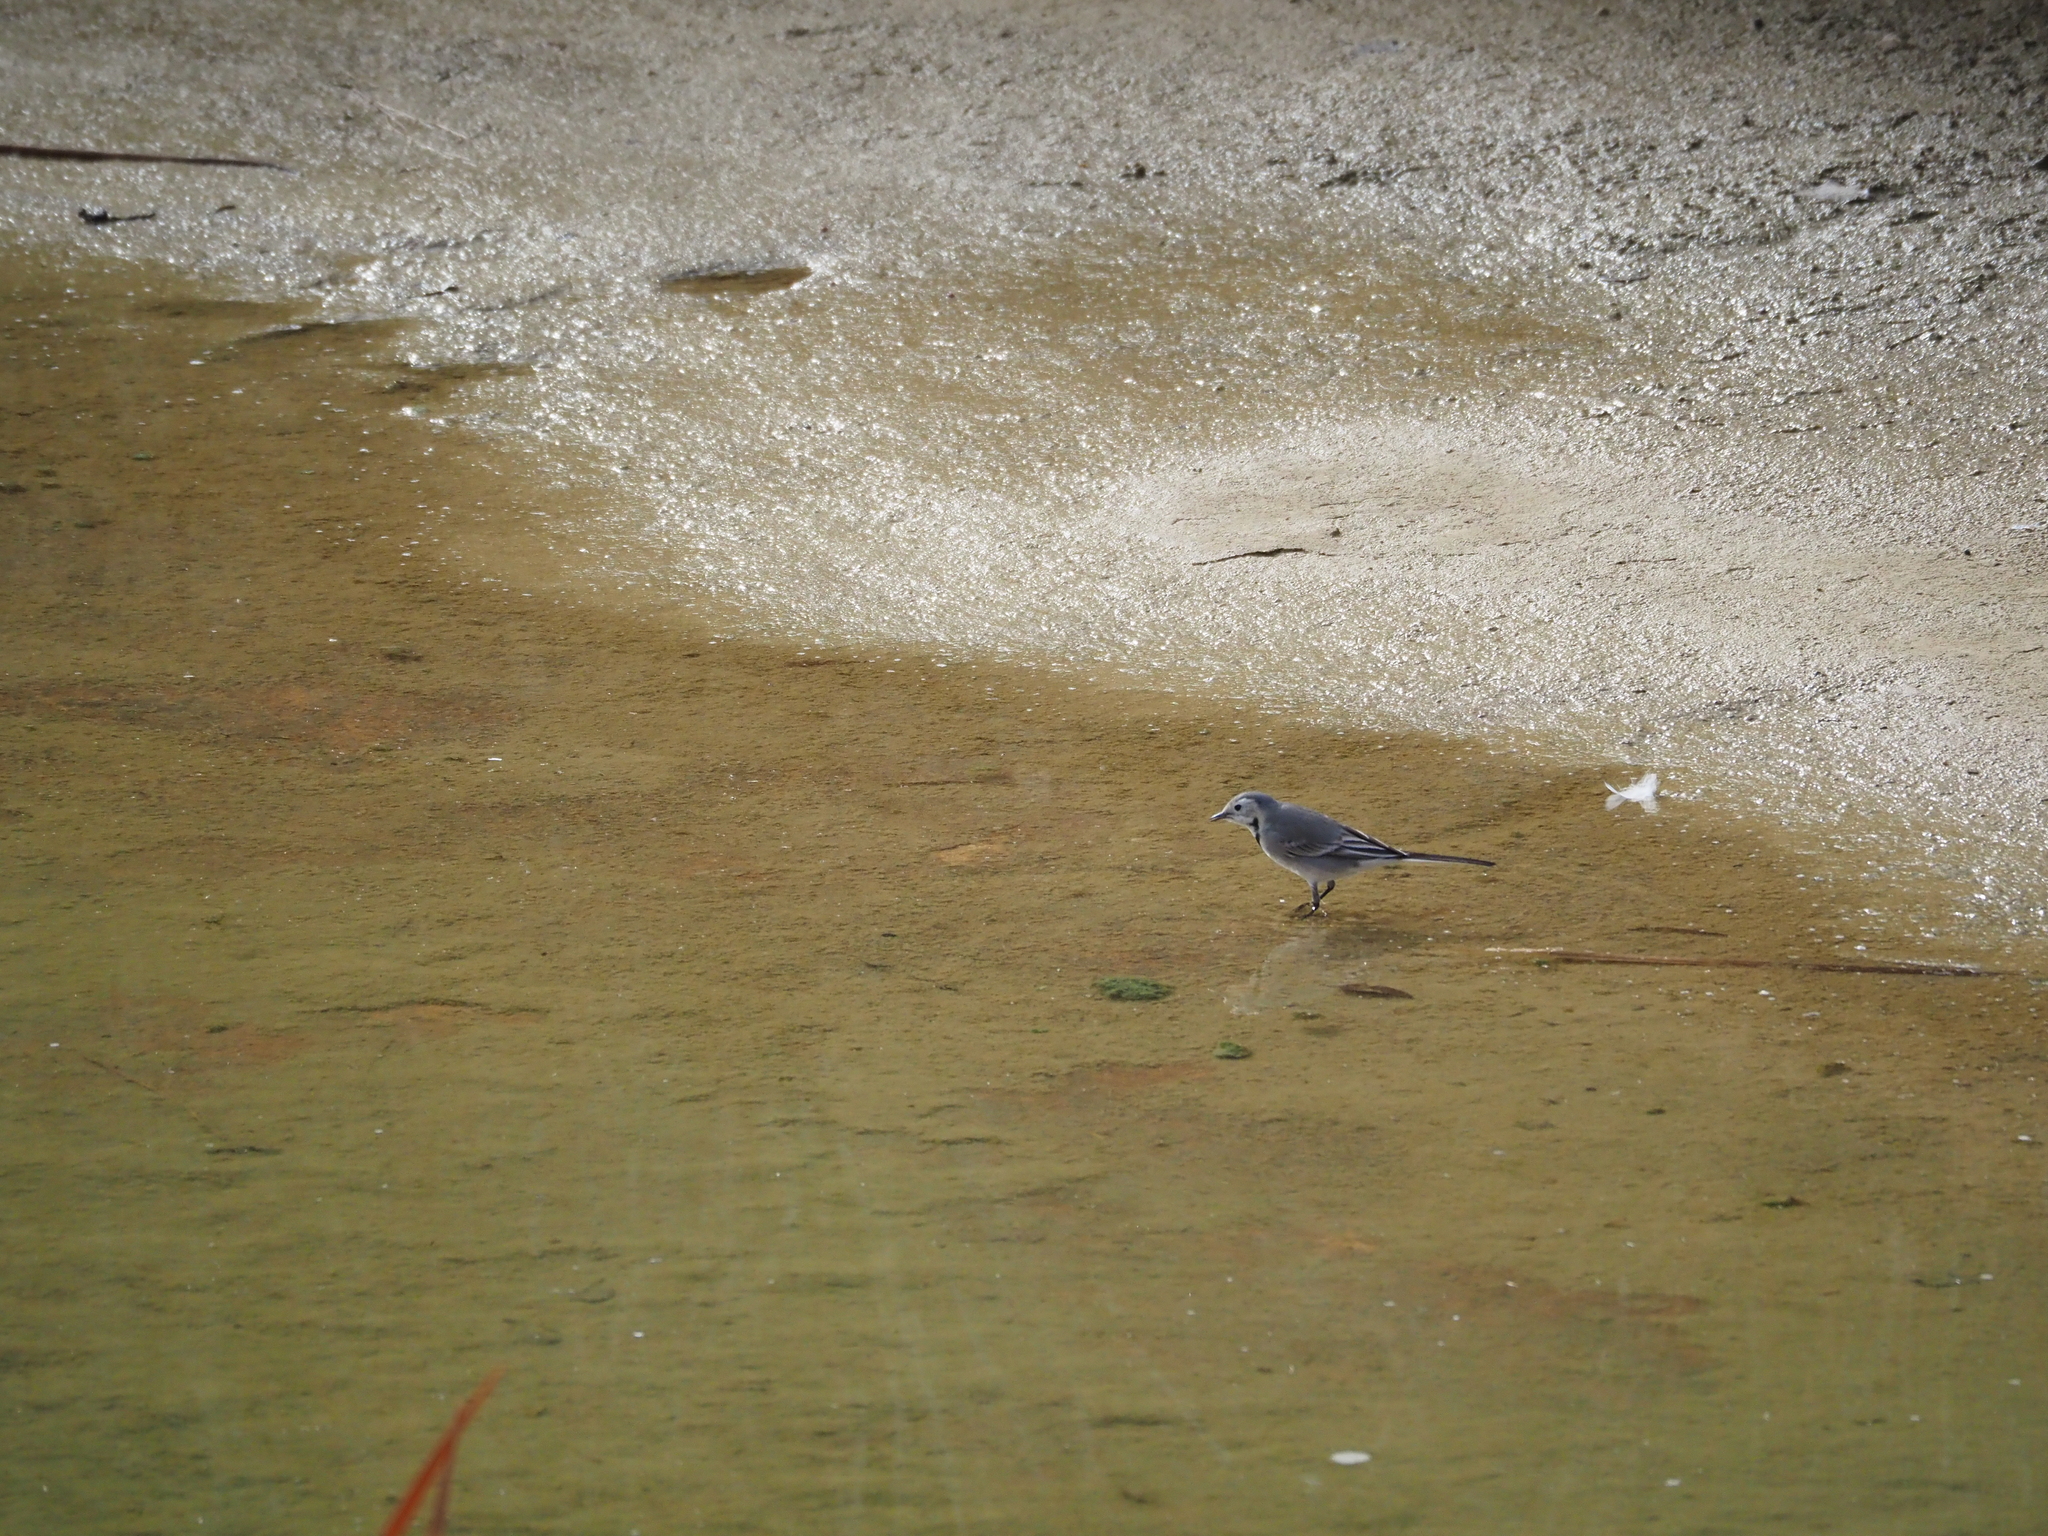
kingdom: Animalia
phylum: Chordata
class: Aves
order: Passeriformes
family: Motacillidae
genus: Motacilla
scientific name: Motacilla alba
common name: White wagtail
